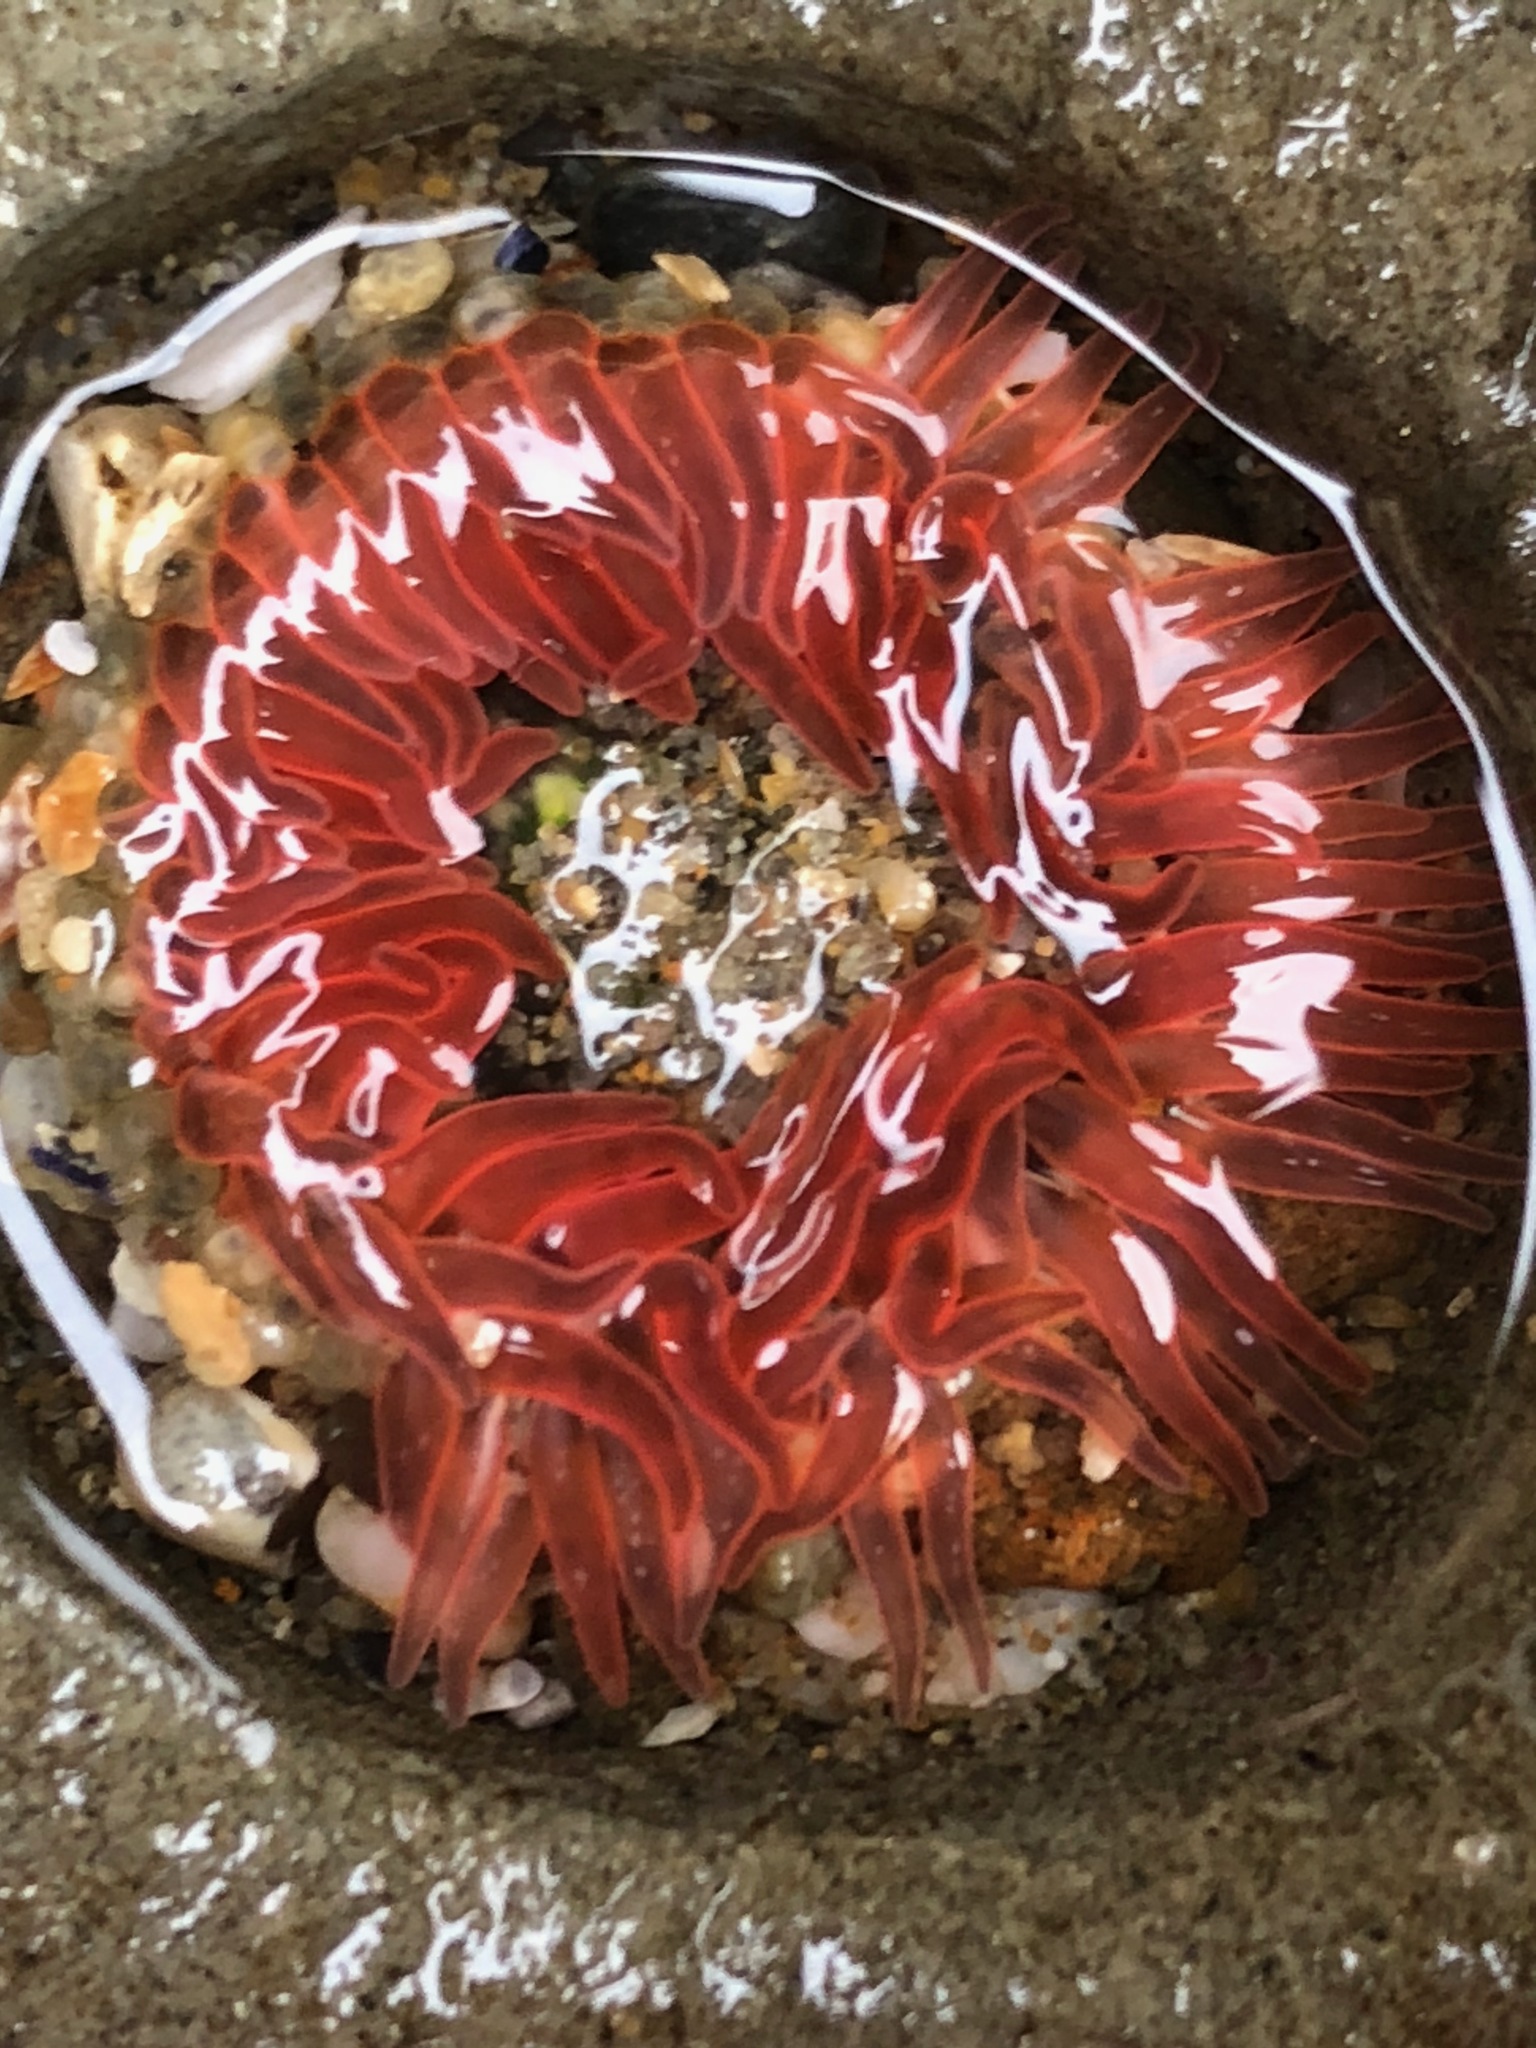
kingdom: Animalia
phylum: Cnidaria
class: Anthozoa
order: Actiniaria
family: Actiniidae
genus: Anthopleura
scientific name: Anthopleura artemisia
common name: Buried sea anemone
